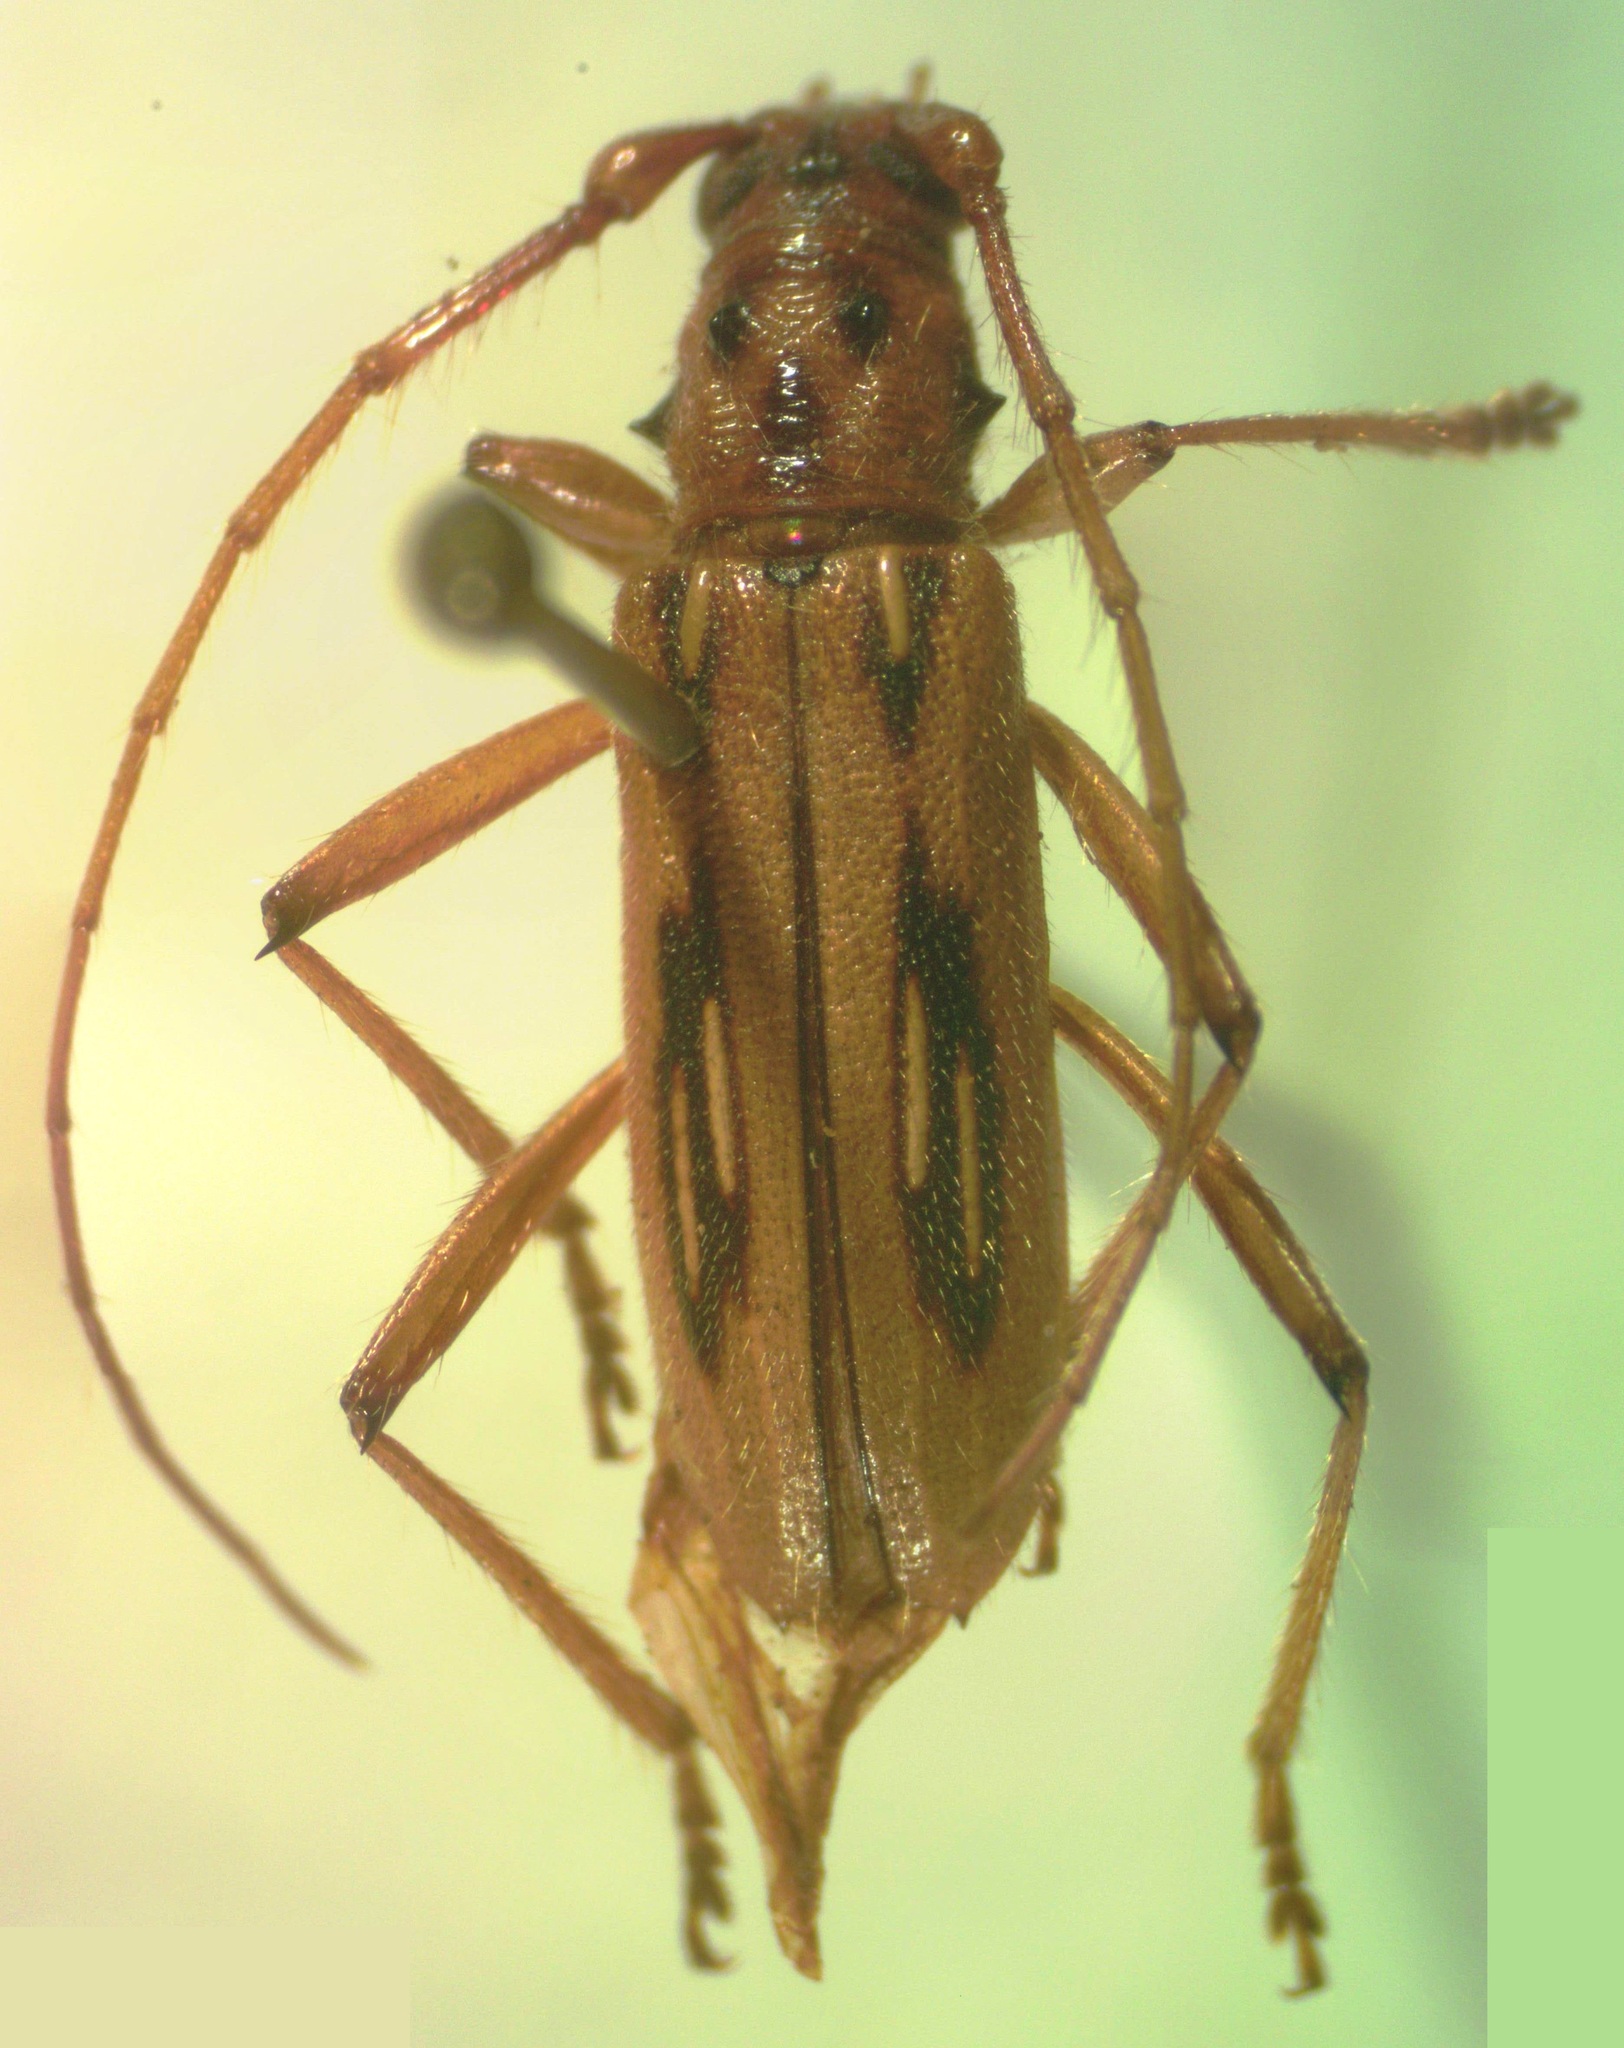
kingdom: Animalia
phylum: Arthropoda
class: Insecta
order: Coleoptera
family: Cerambycidae
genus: Eburodacrys
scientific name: Eburodacrys nemorivaga
